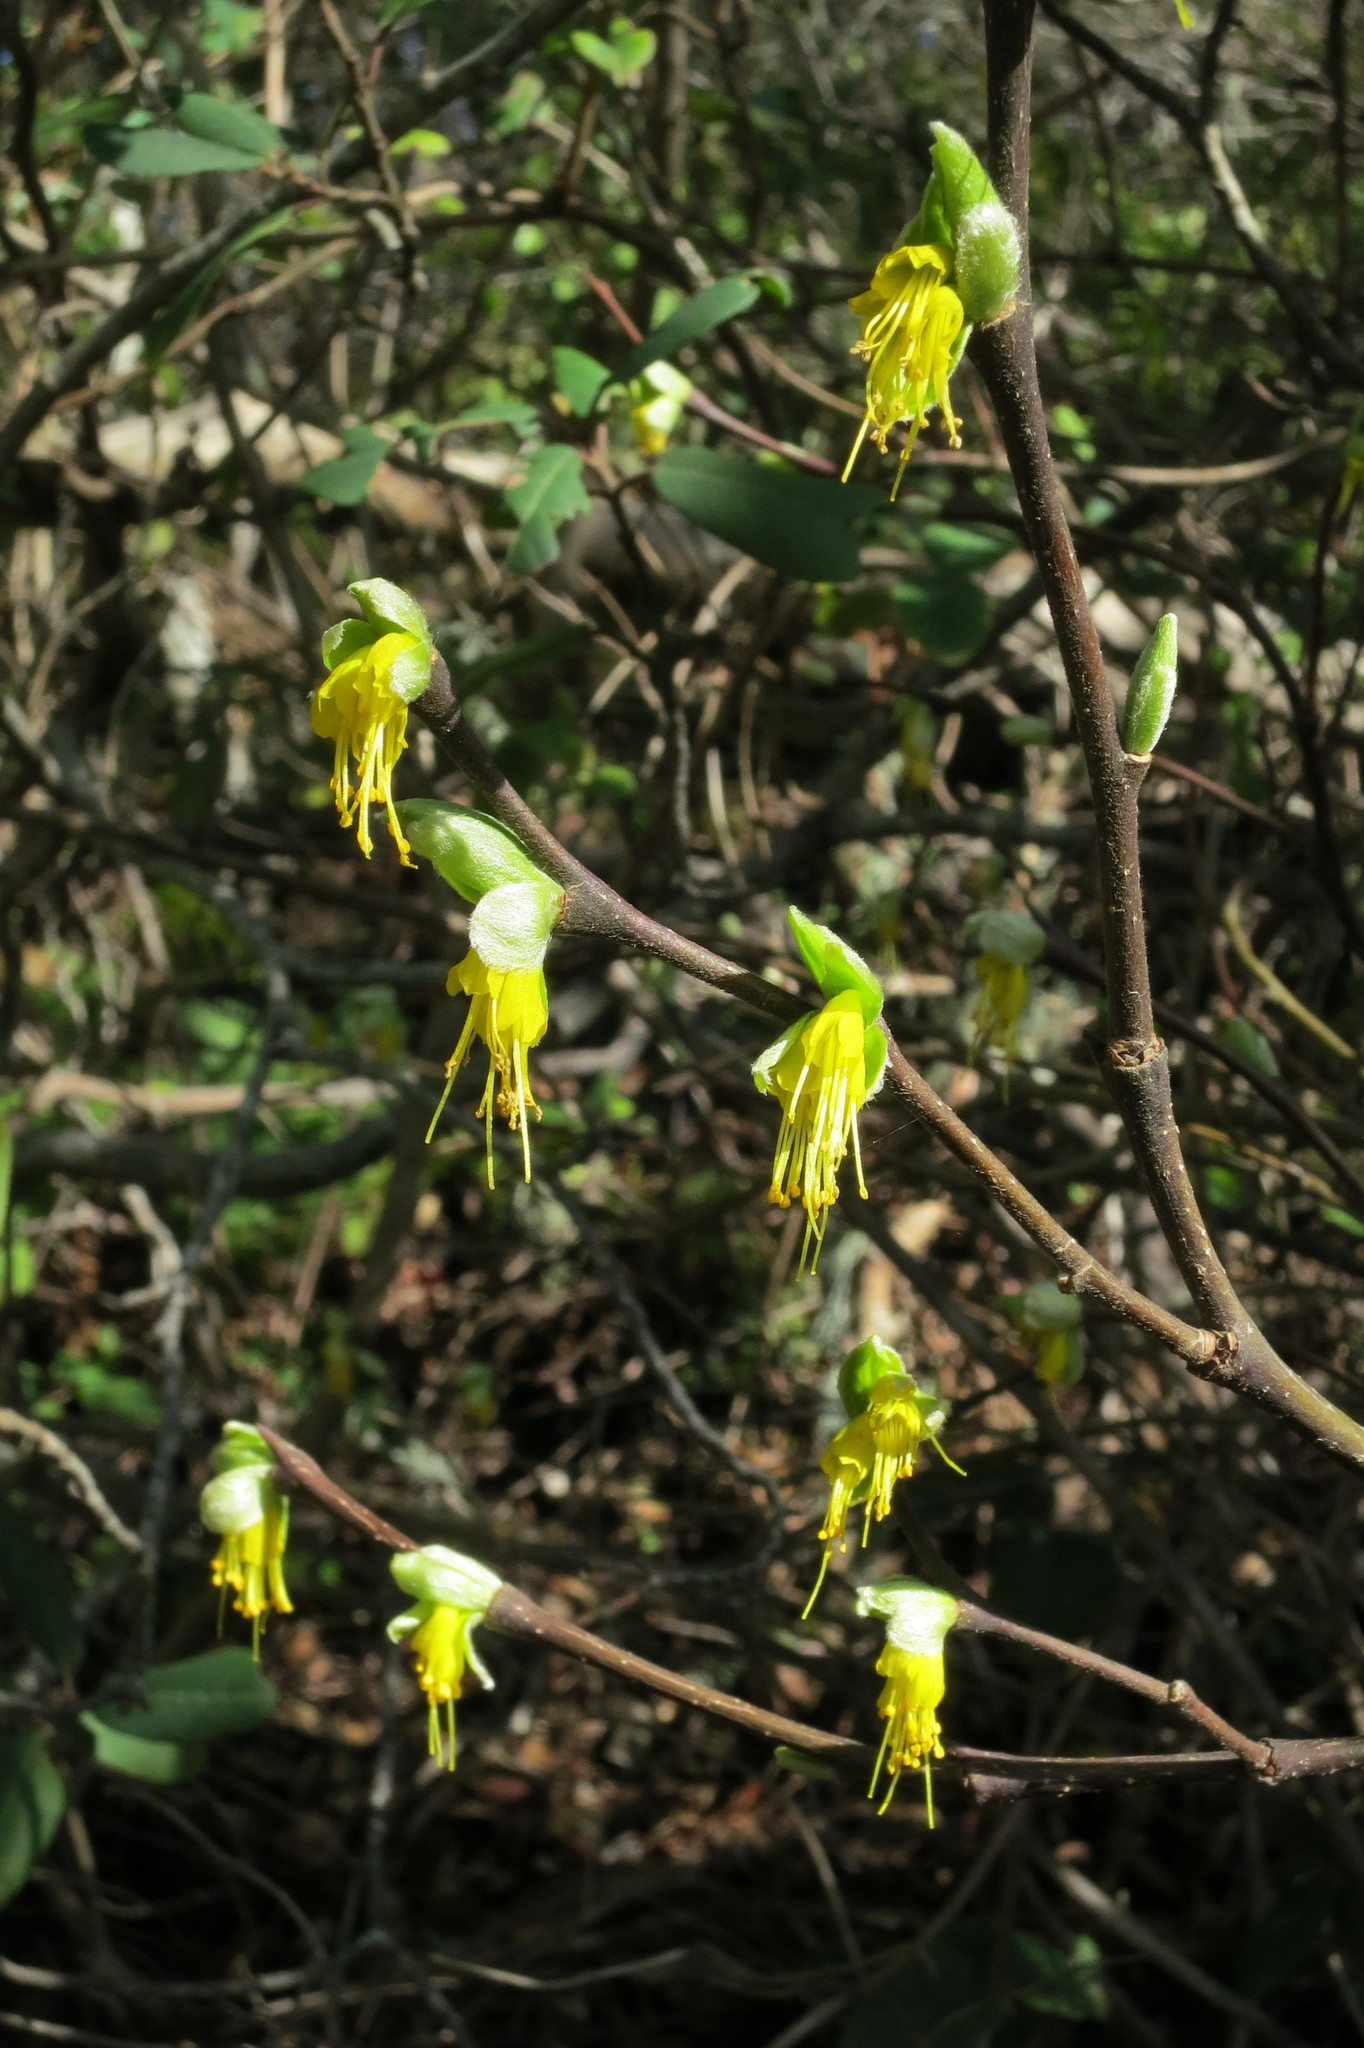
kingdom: Plantae
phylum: Tracheophyta
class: Magnoliopsida
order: Malvales
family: Thymelaeaceae
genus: Dirca
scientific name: Dirca occidentalis
